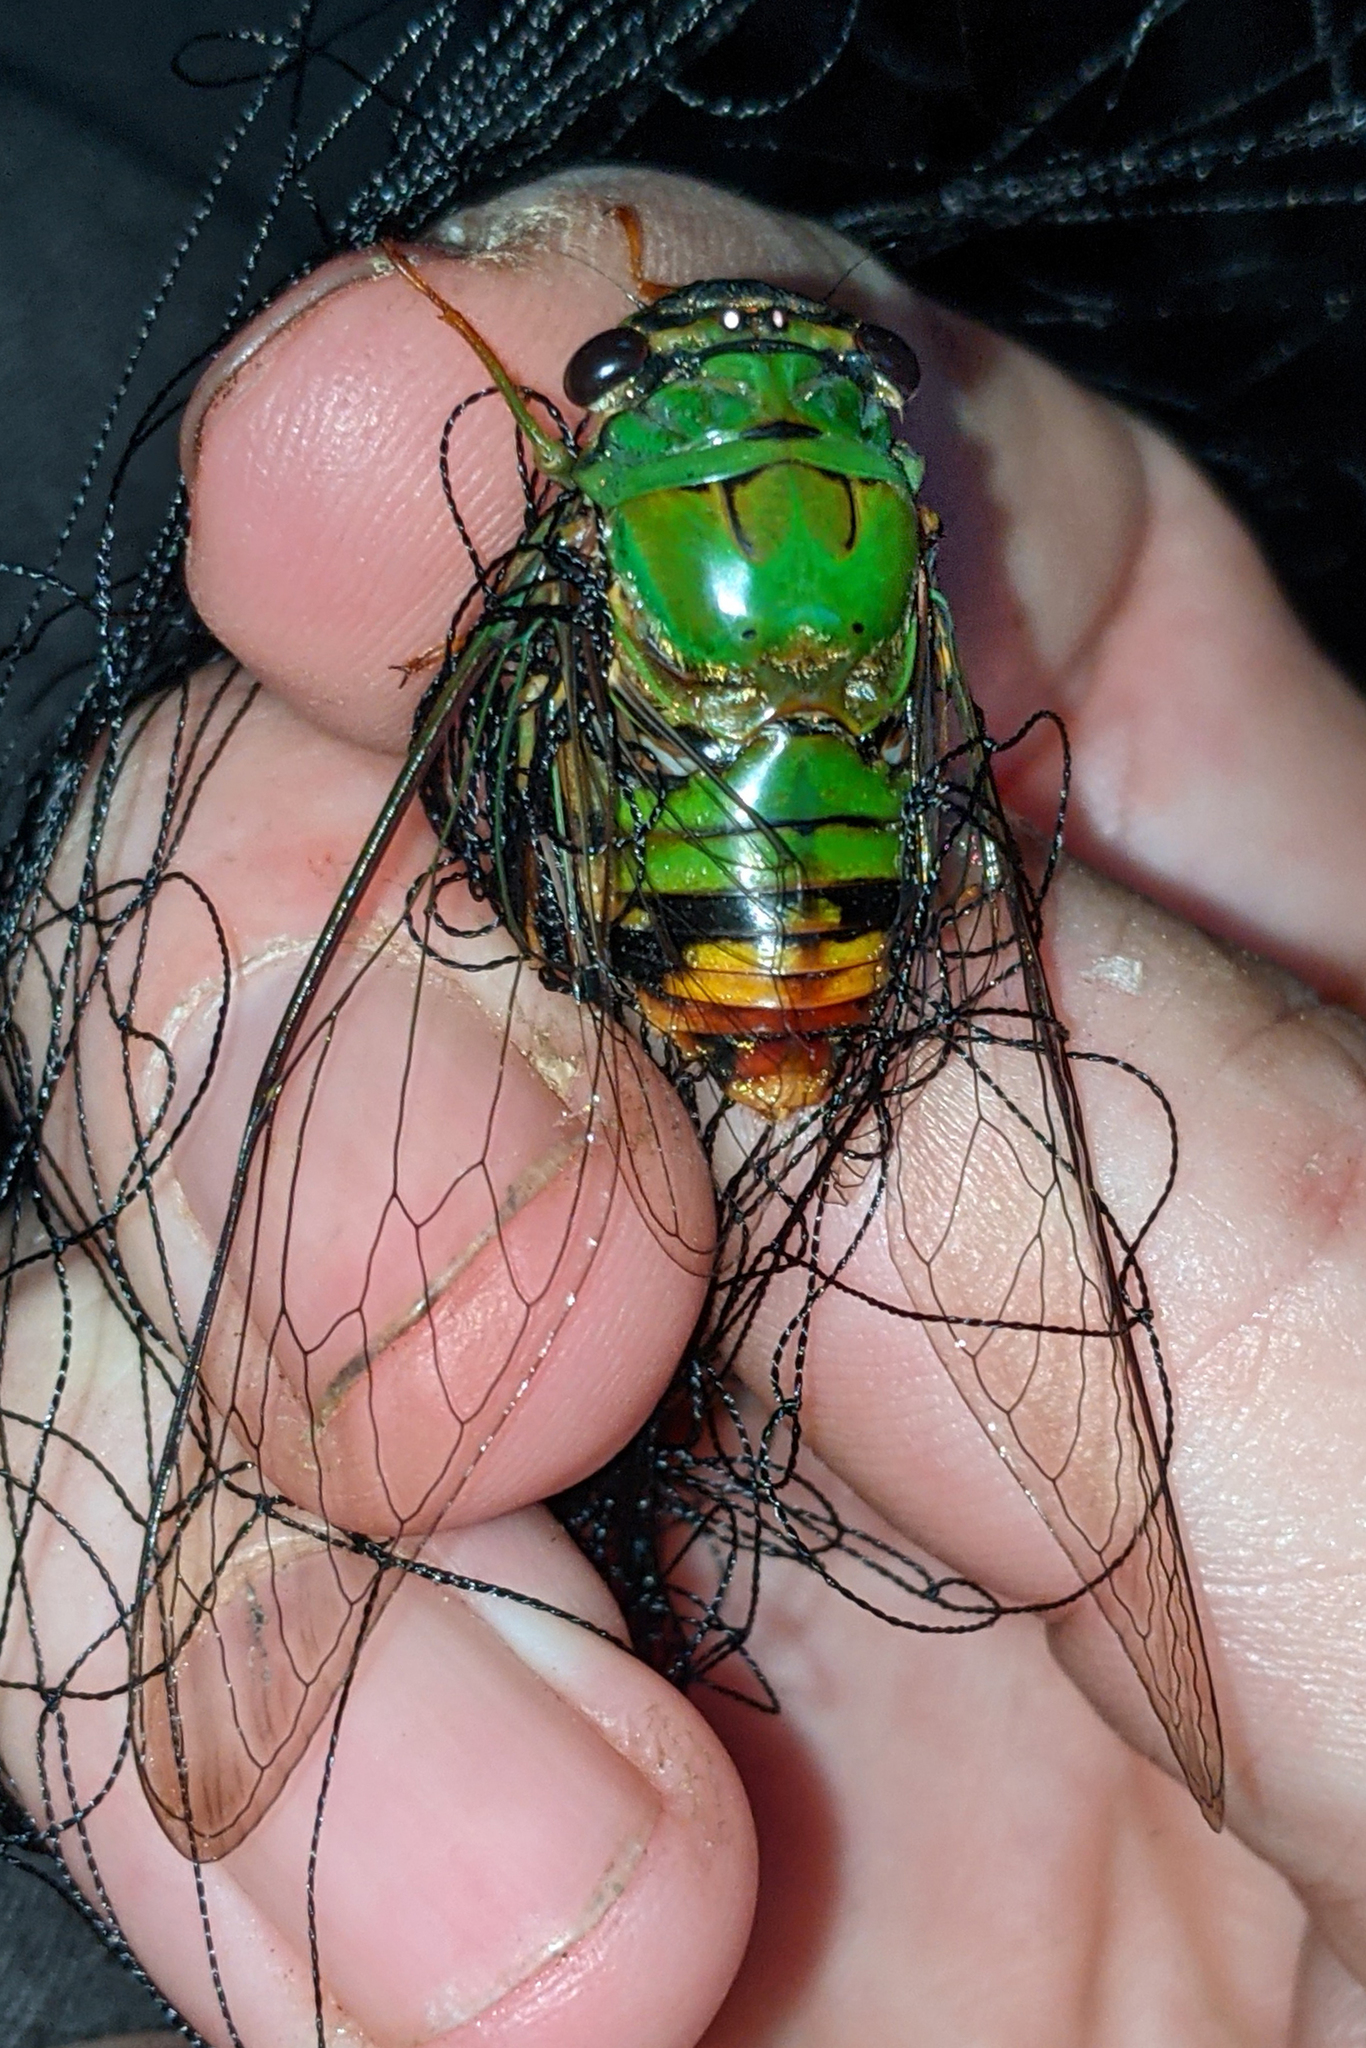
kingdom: Animalia
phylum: Arthropoda
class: Insecta
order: Hemiptera
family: Cicadidae
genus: Guyalna
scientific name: Guyalna distanti
